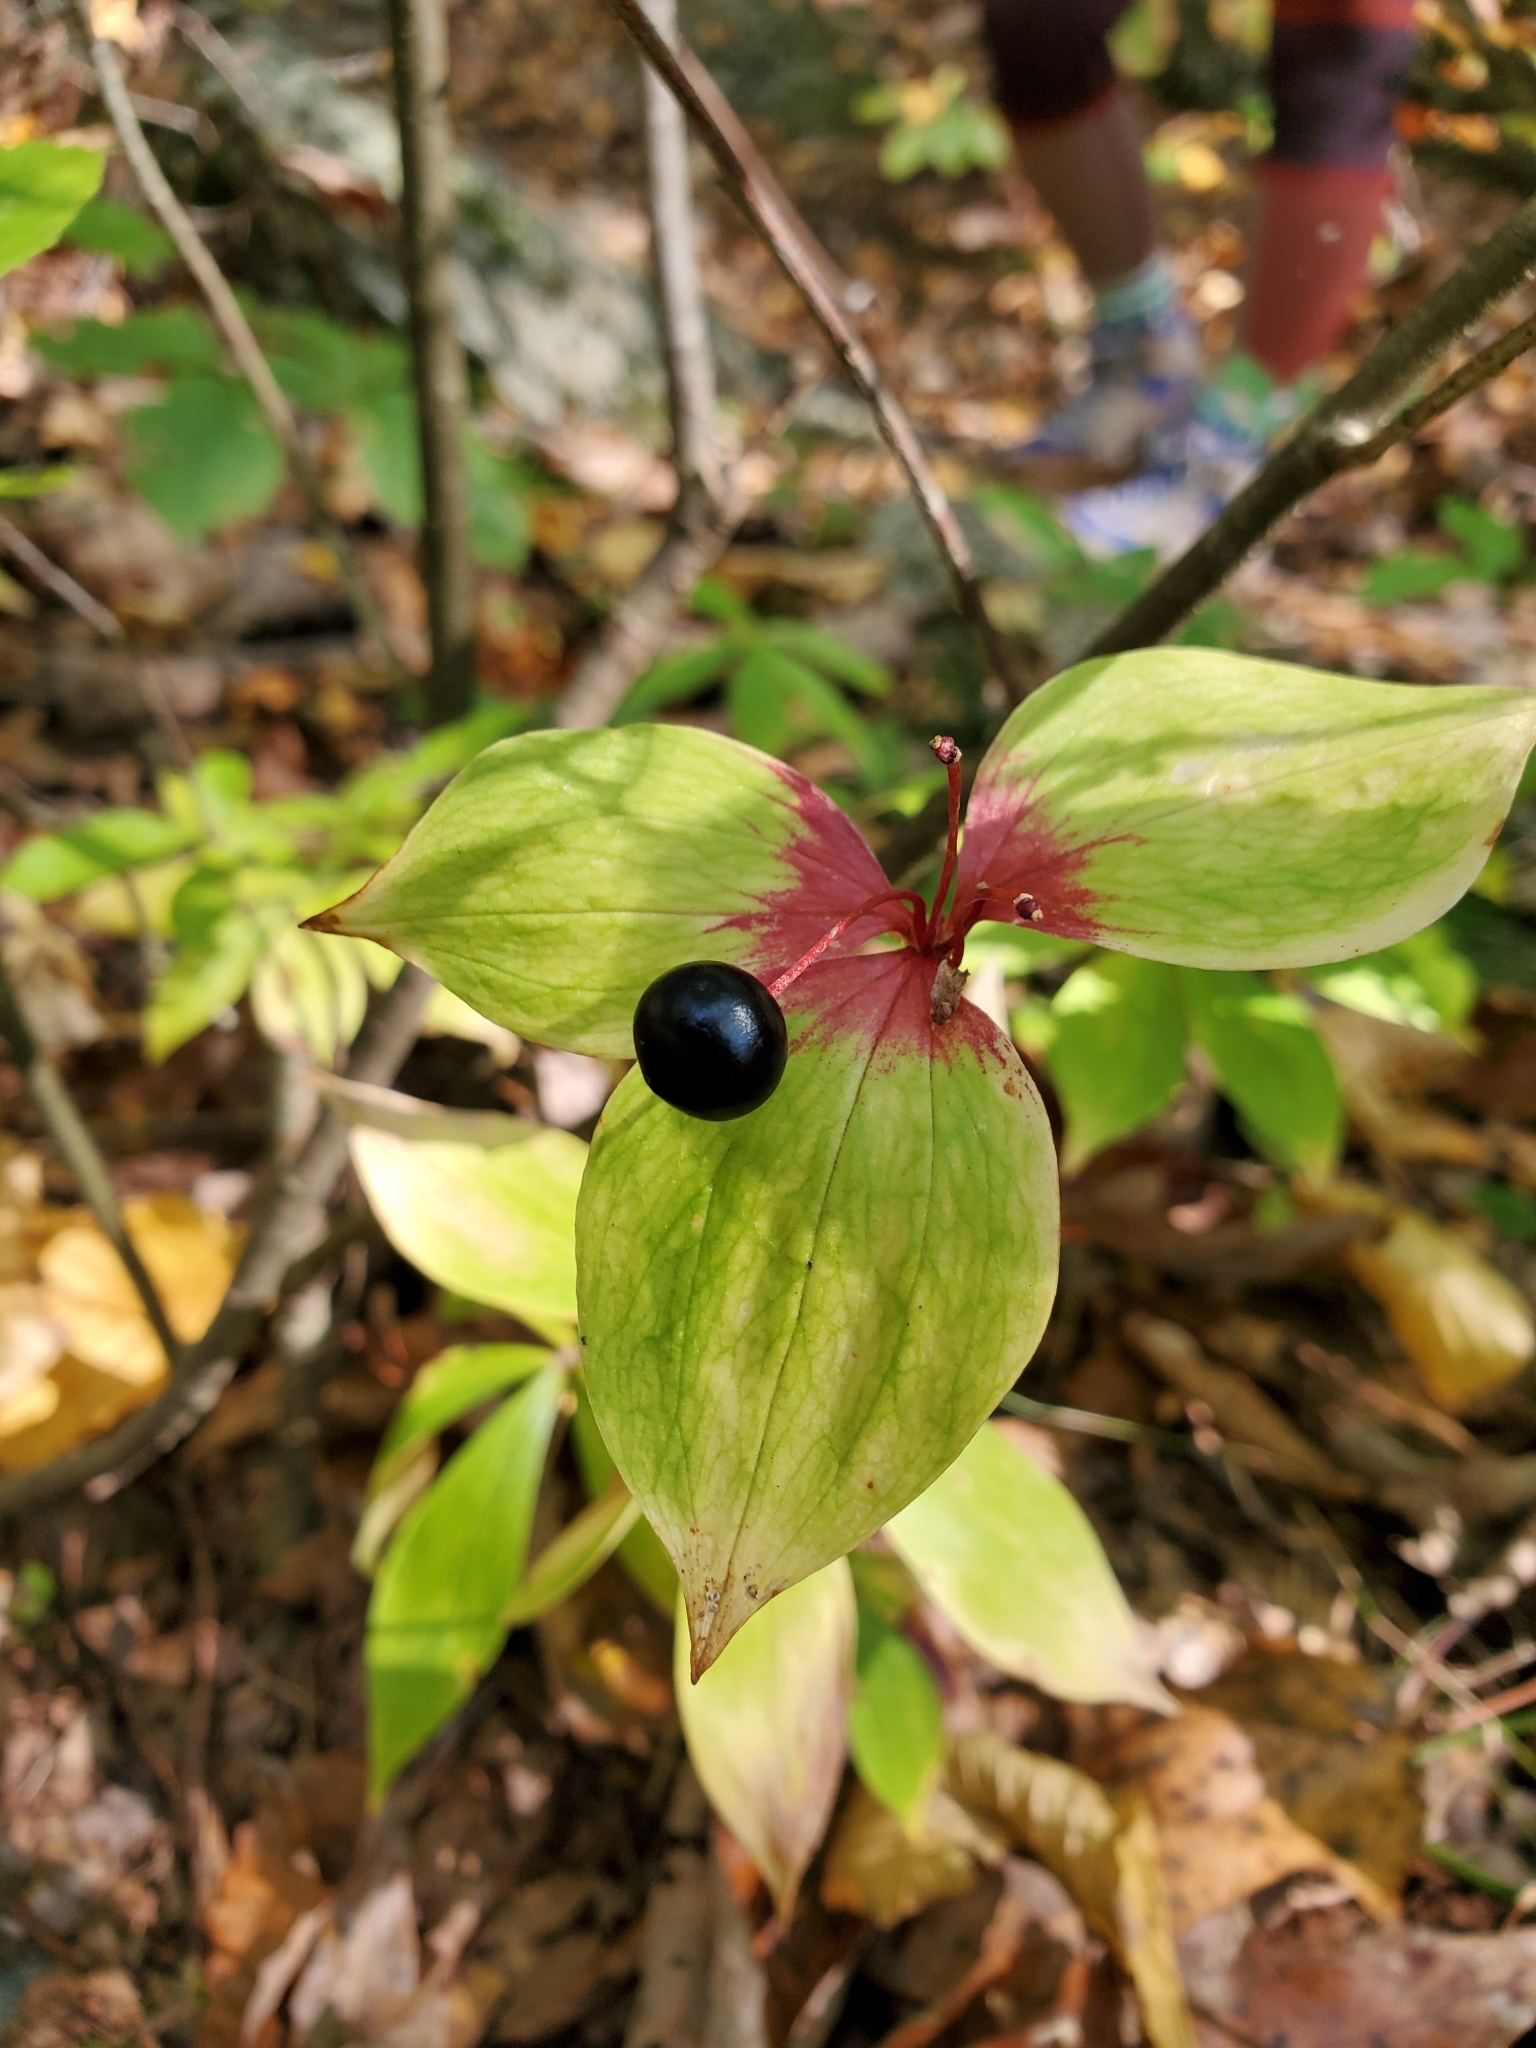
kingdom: Plantae
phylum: Tracheophyta
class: Liliopsida
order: Liliales
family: Liliaceae
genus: Medeola
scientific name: Medeola virginiana
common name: Indian cucumber-root
